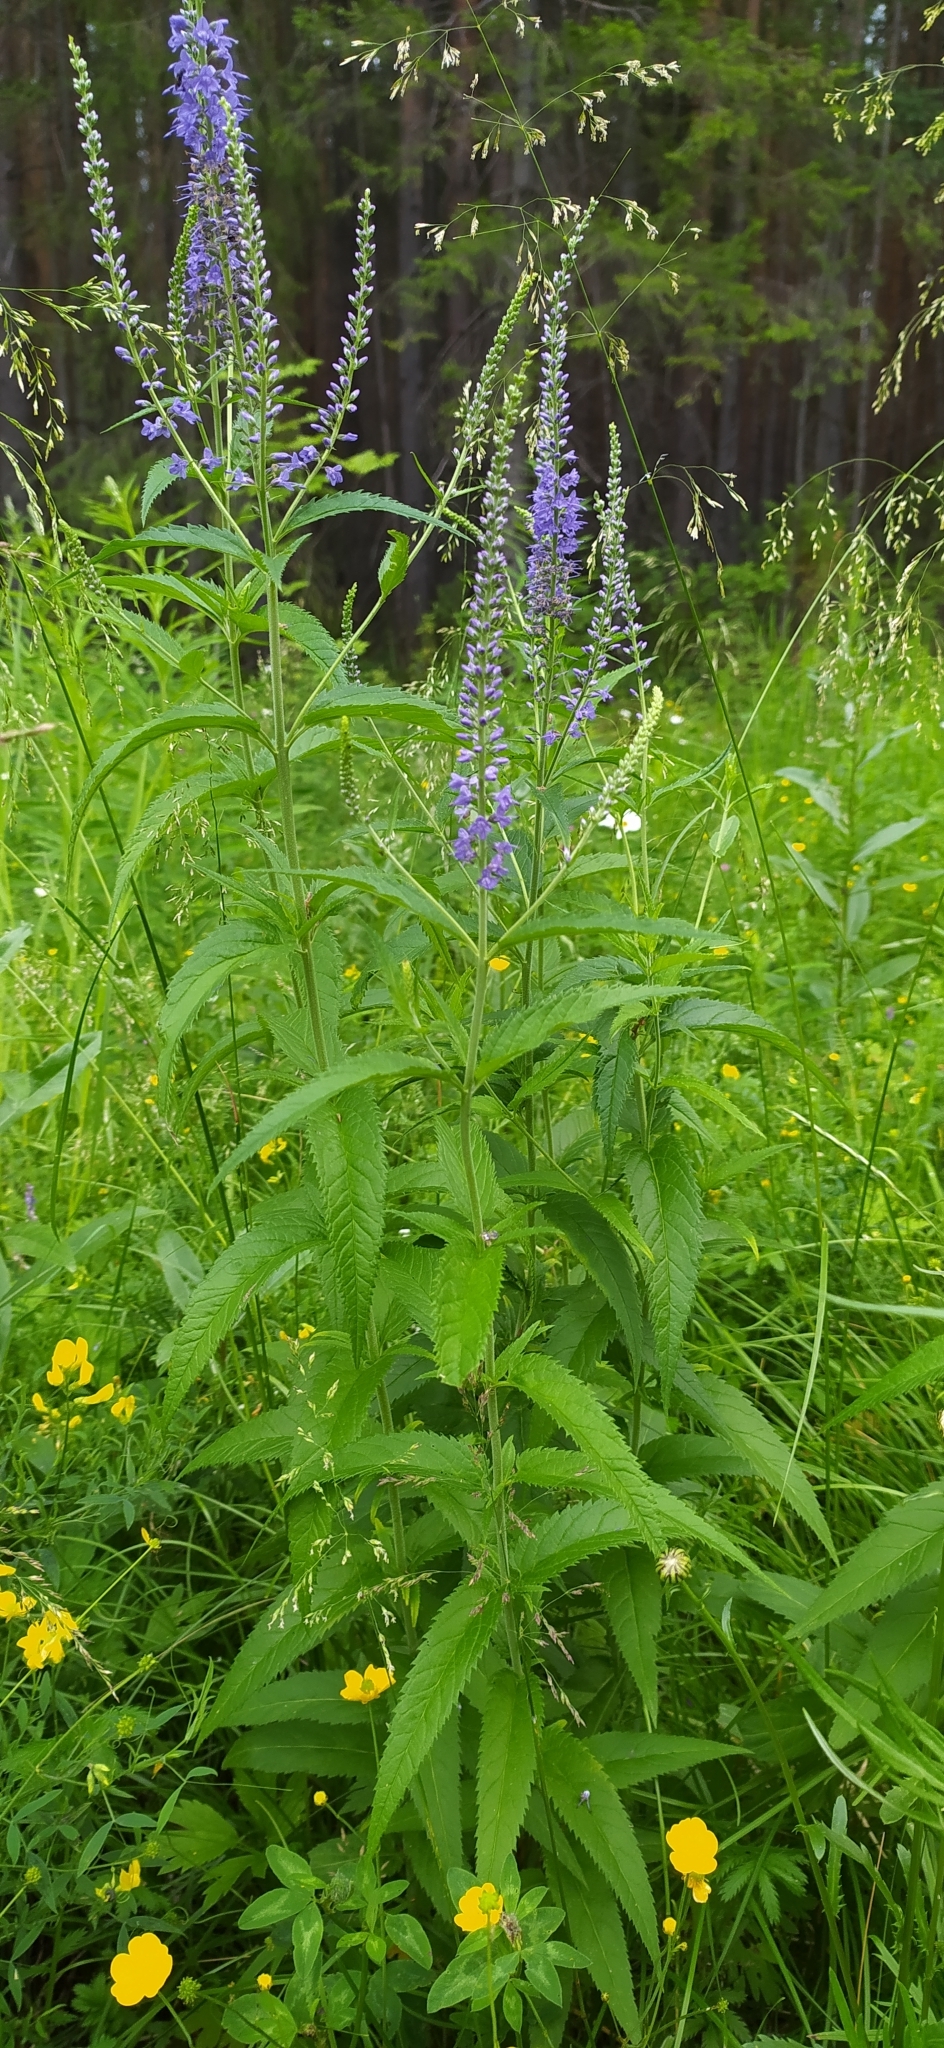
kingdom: Plantae
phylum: Tracheophyta
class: Magnoliopsida
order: Lamiales
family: Plantaginaceae
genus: Veronica
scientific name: Veronica longifolia
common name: Garden speedwell
